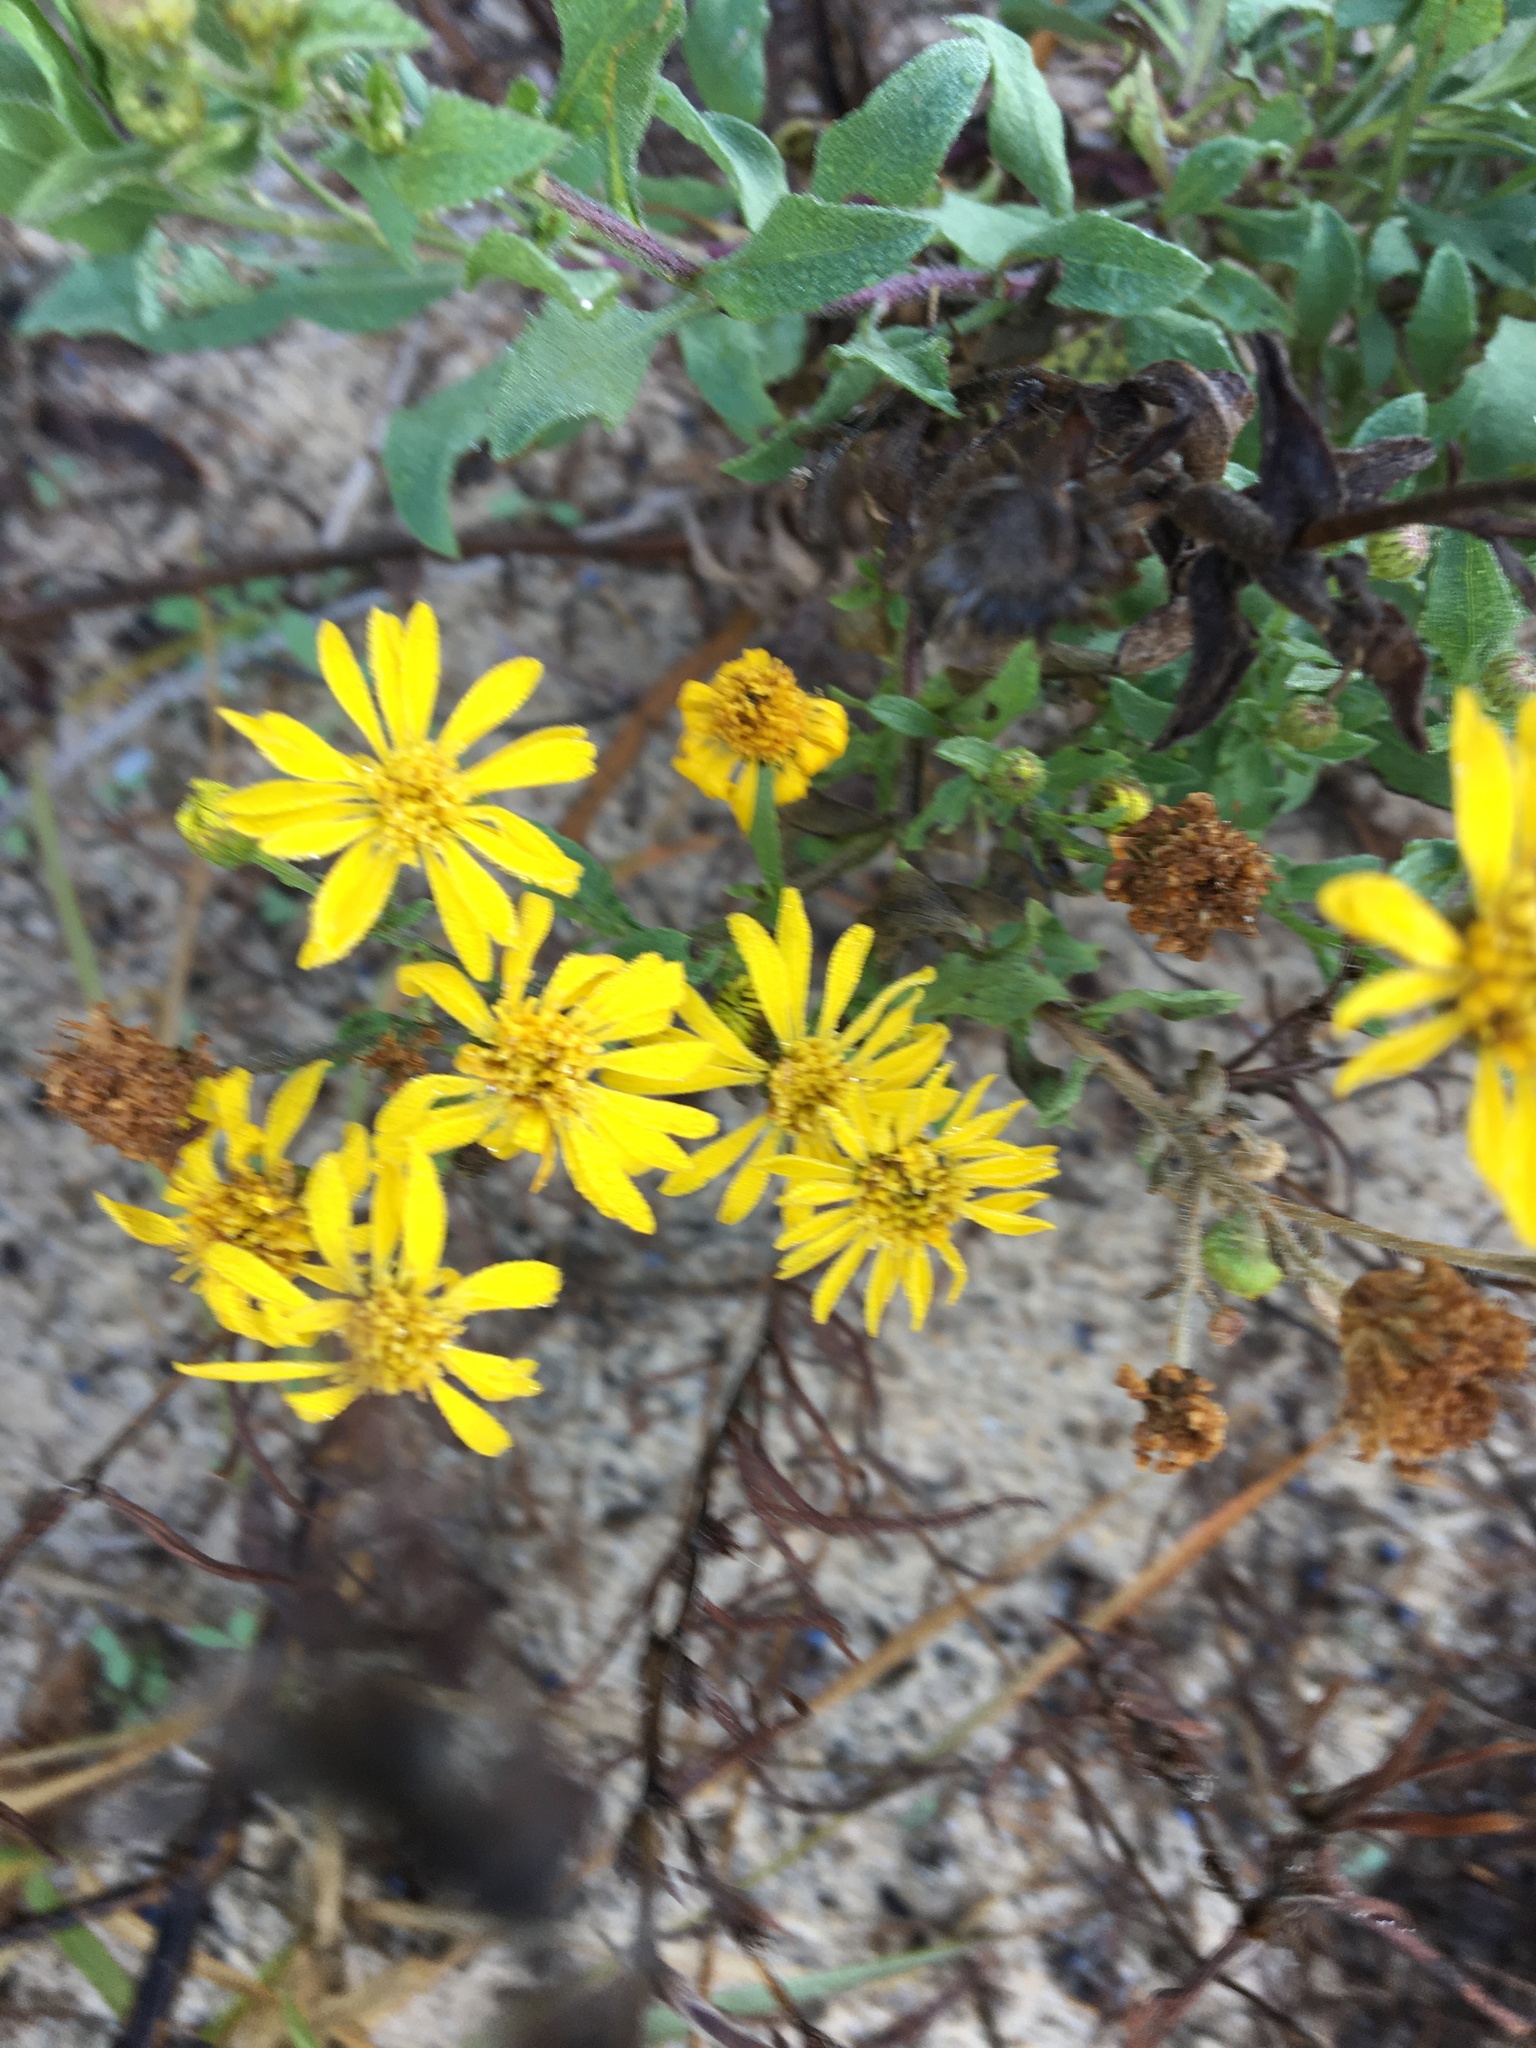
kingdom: Plantae
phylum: Tracheophyta
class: Magnoliopsida
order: Asterales
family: Asteraceae
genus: Heterotheca
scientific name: Heterotheca subaxillaris
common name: Camphorweed
